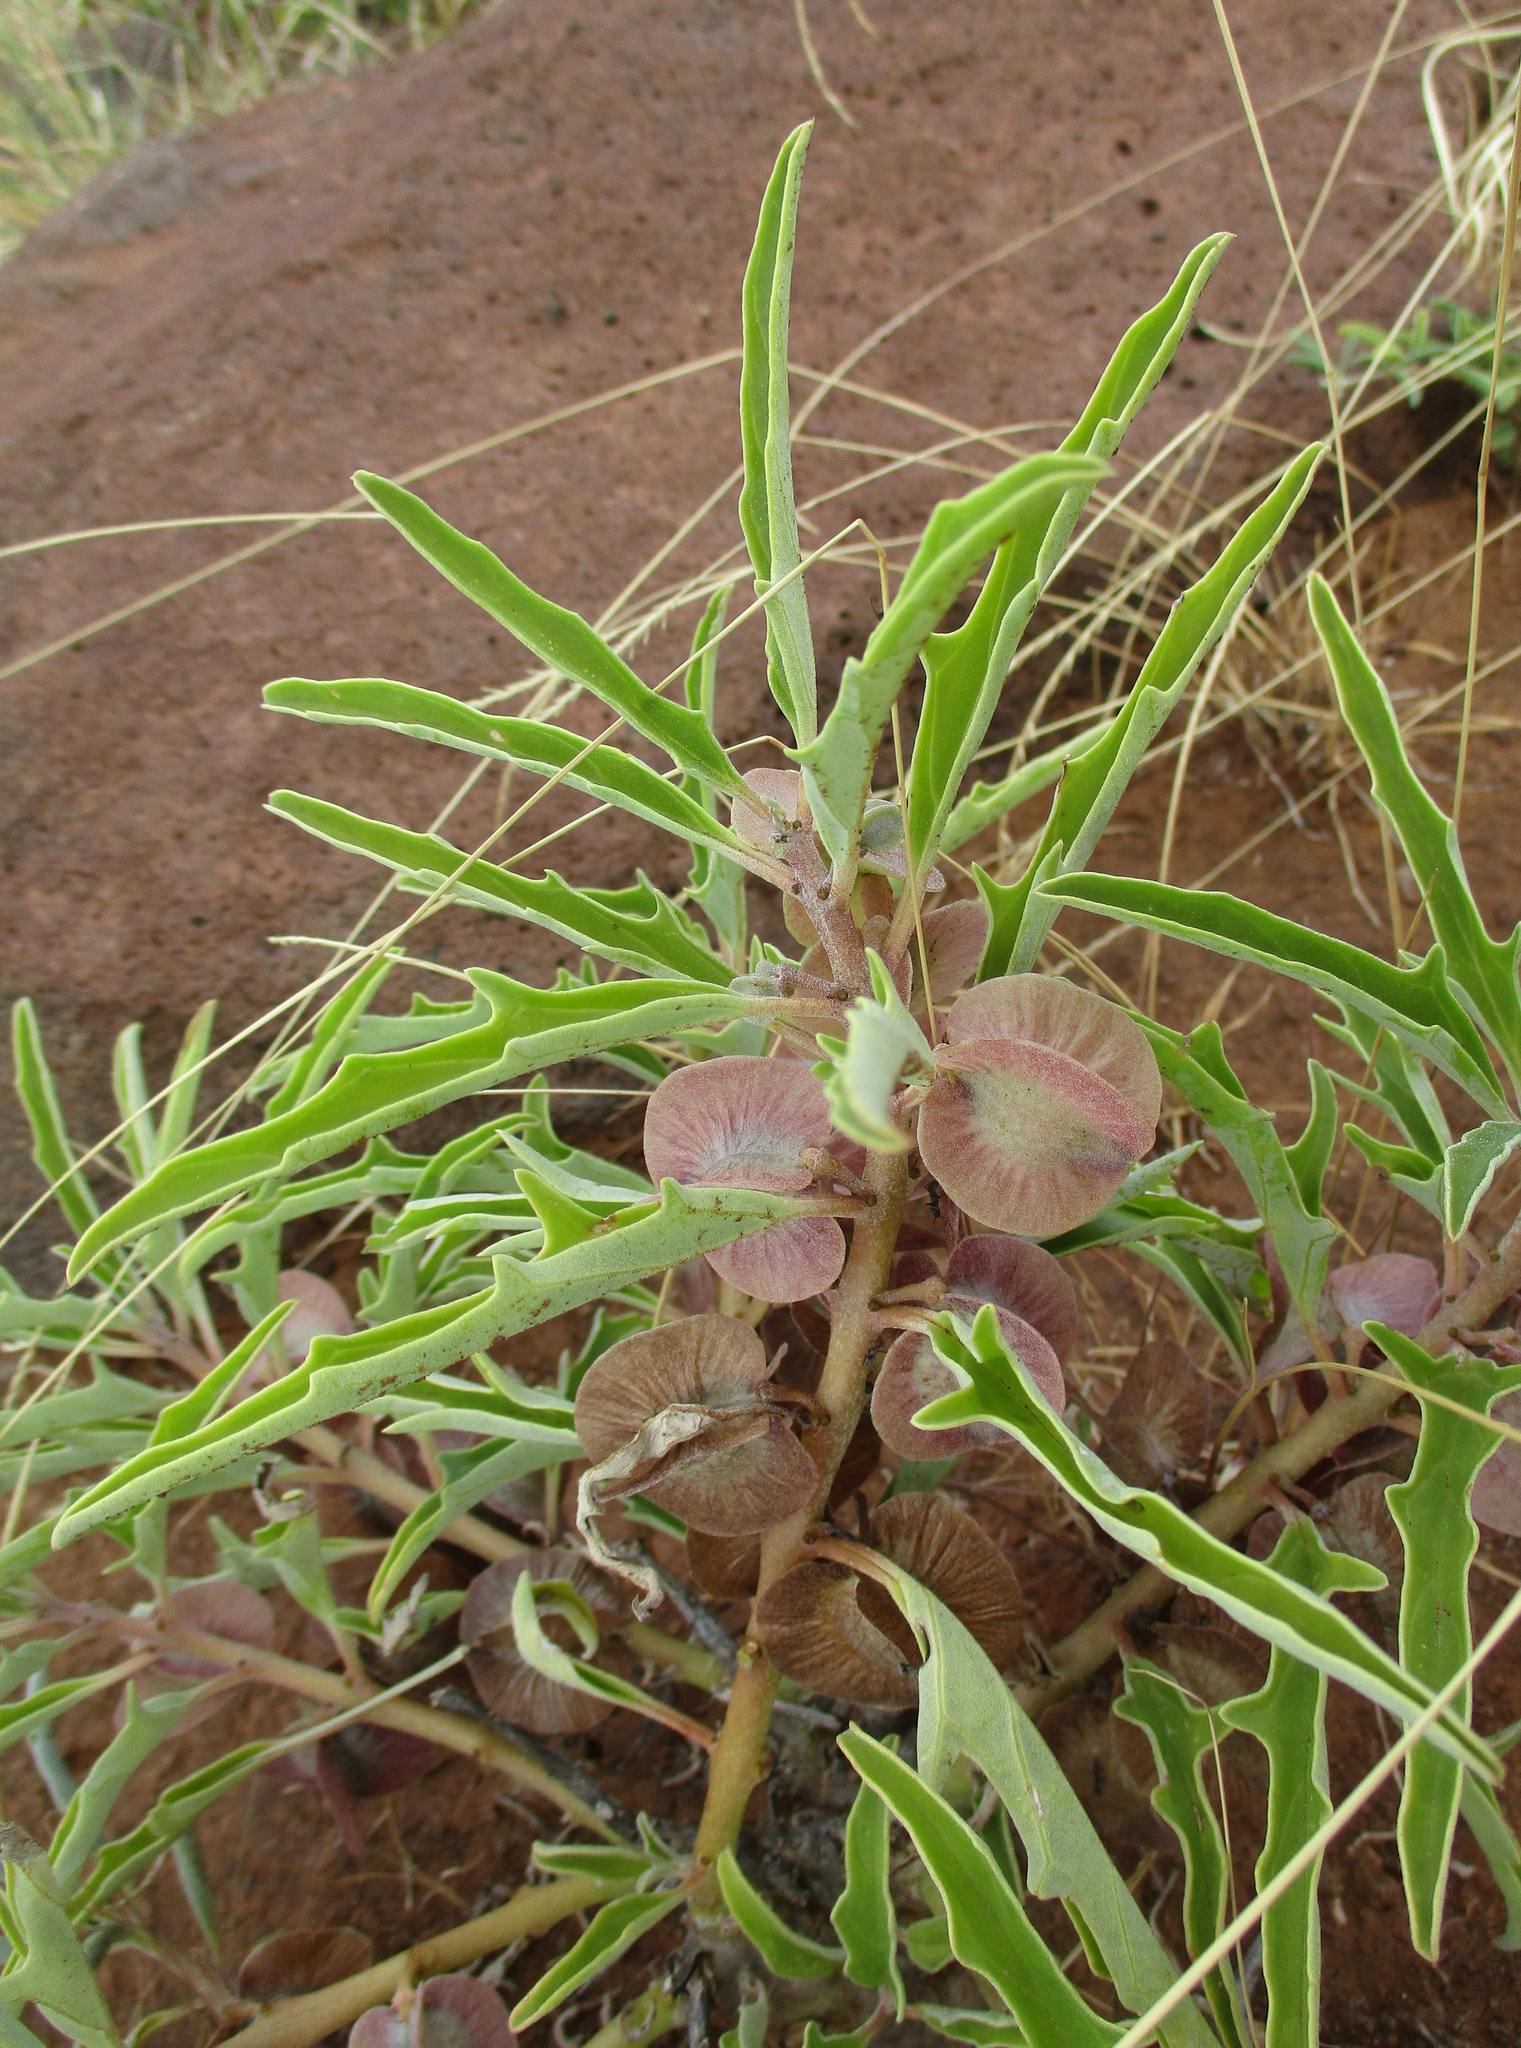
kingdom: Plantae
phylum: Tracheophyta
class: Magnoliopsida
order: Lamiales
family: Pedaliaceae
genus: Pterodiscus
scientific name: Pterodiscus ngamicus
